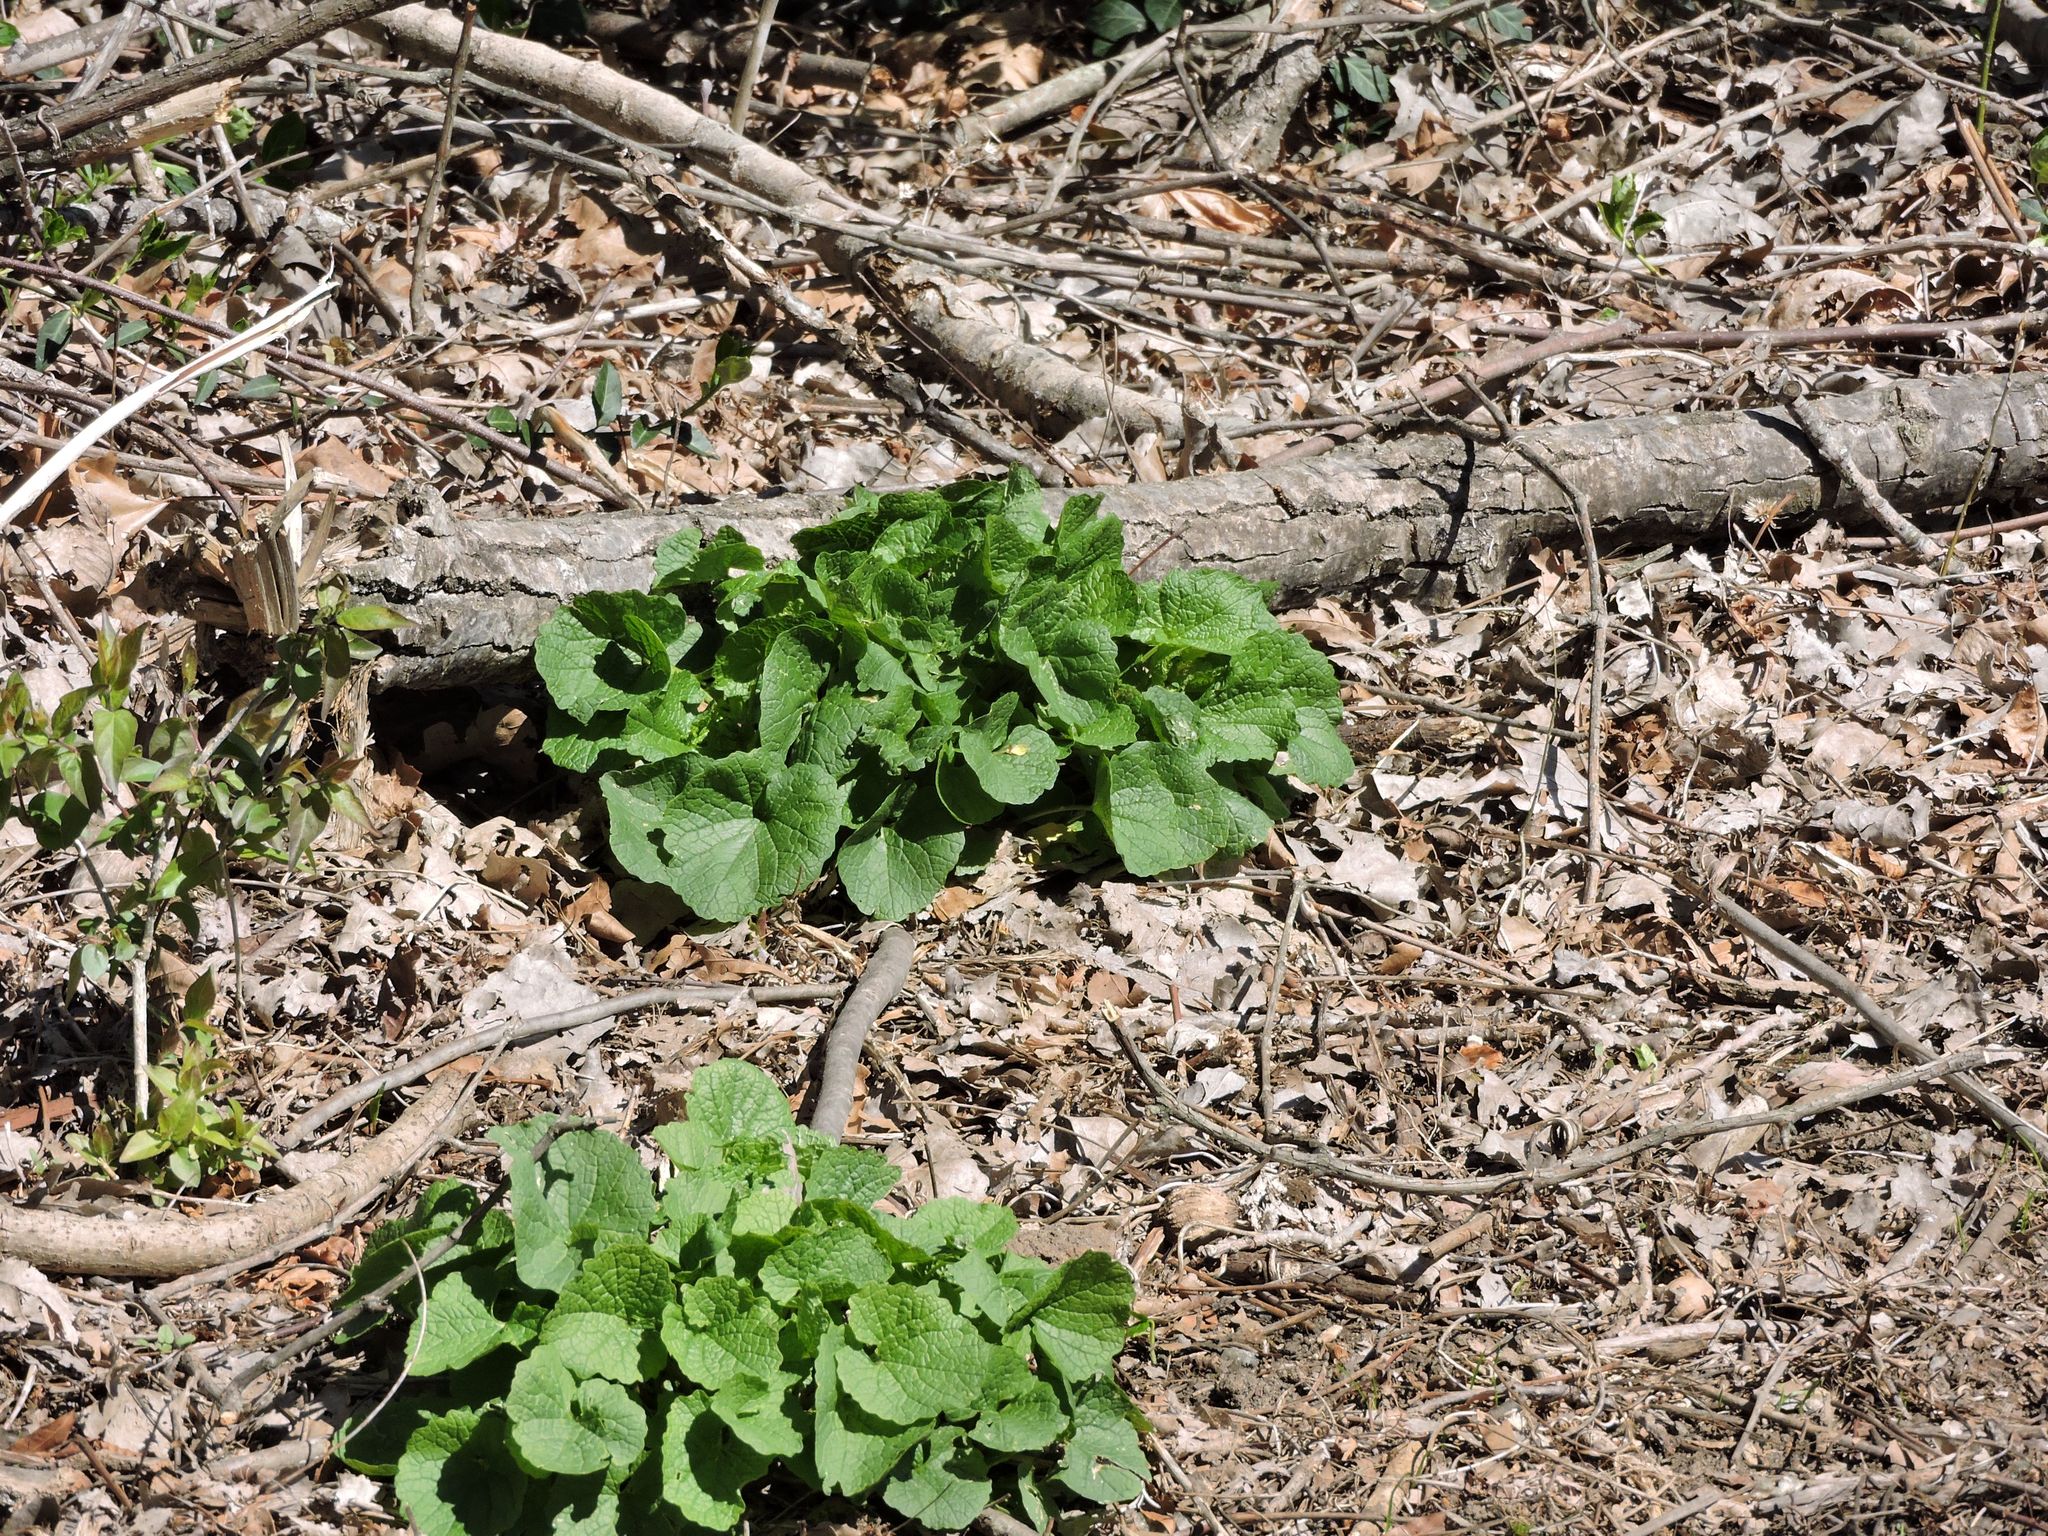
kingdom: Plantae
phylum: Tracheophyta
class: Magnoliopsida
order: Brassicales
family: Brassicaceae
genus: Alliaria
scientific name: Alliaria petiolata
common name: Garlic mustard
